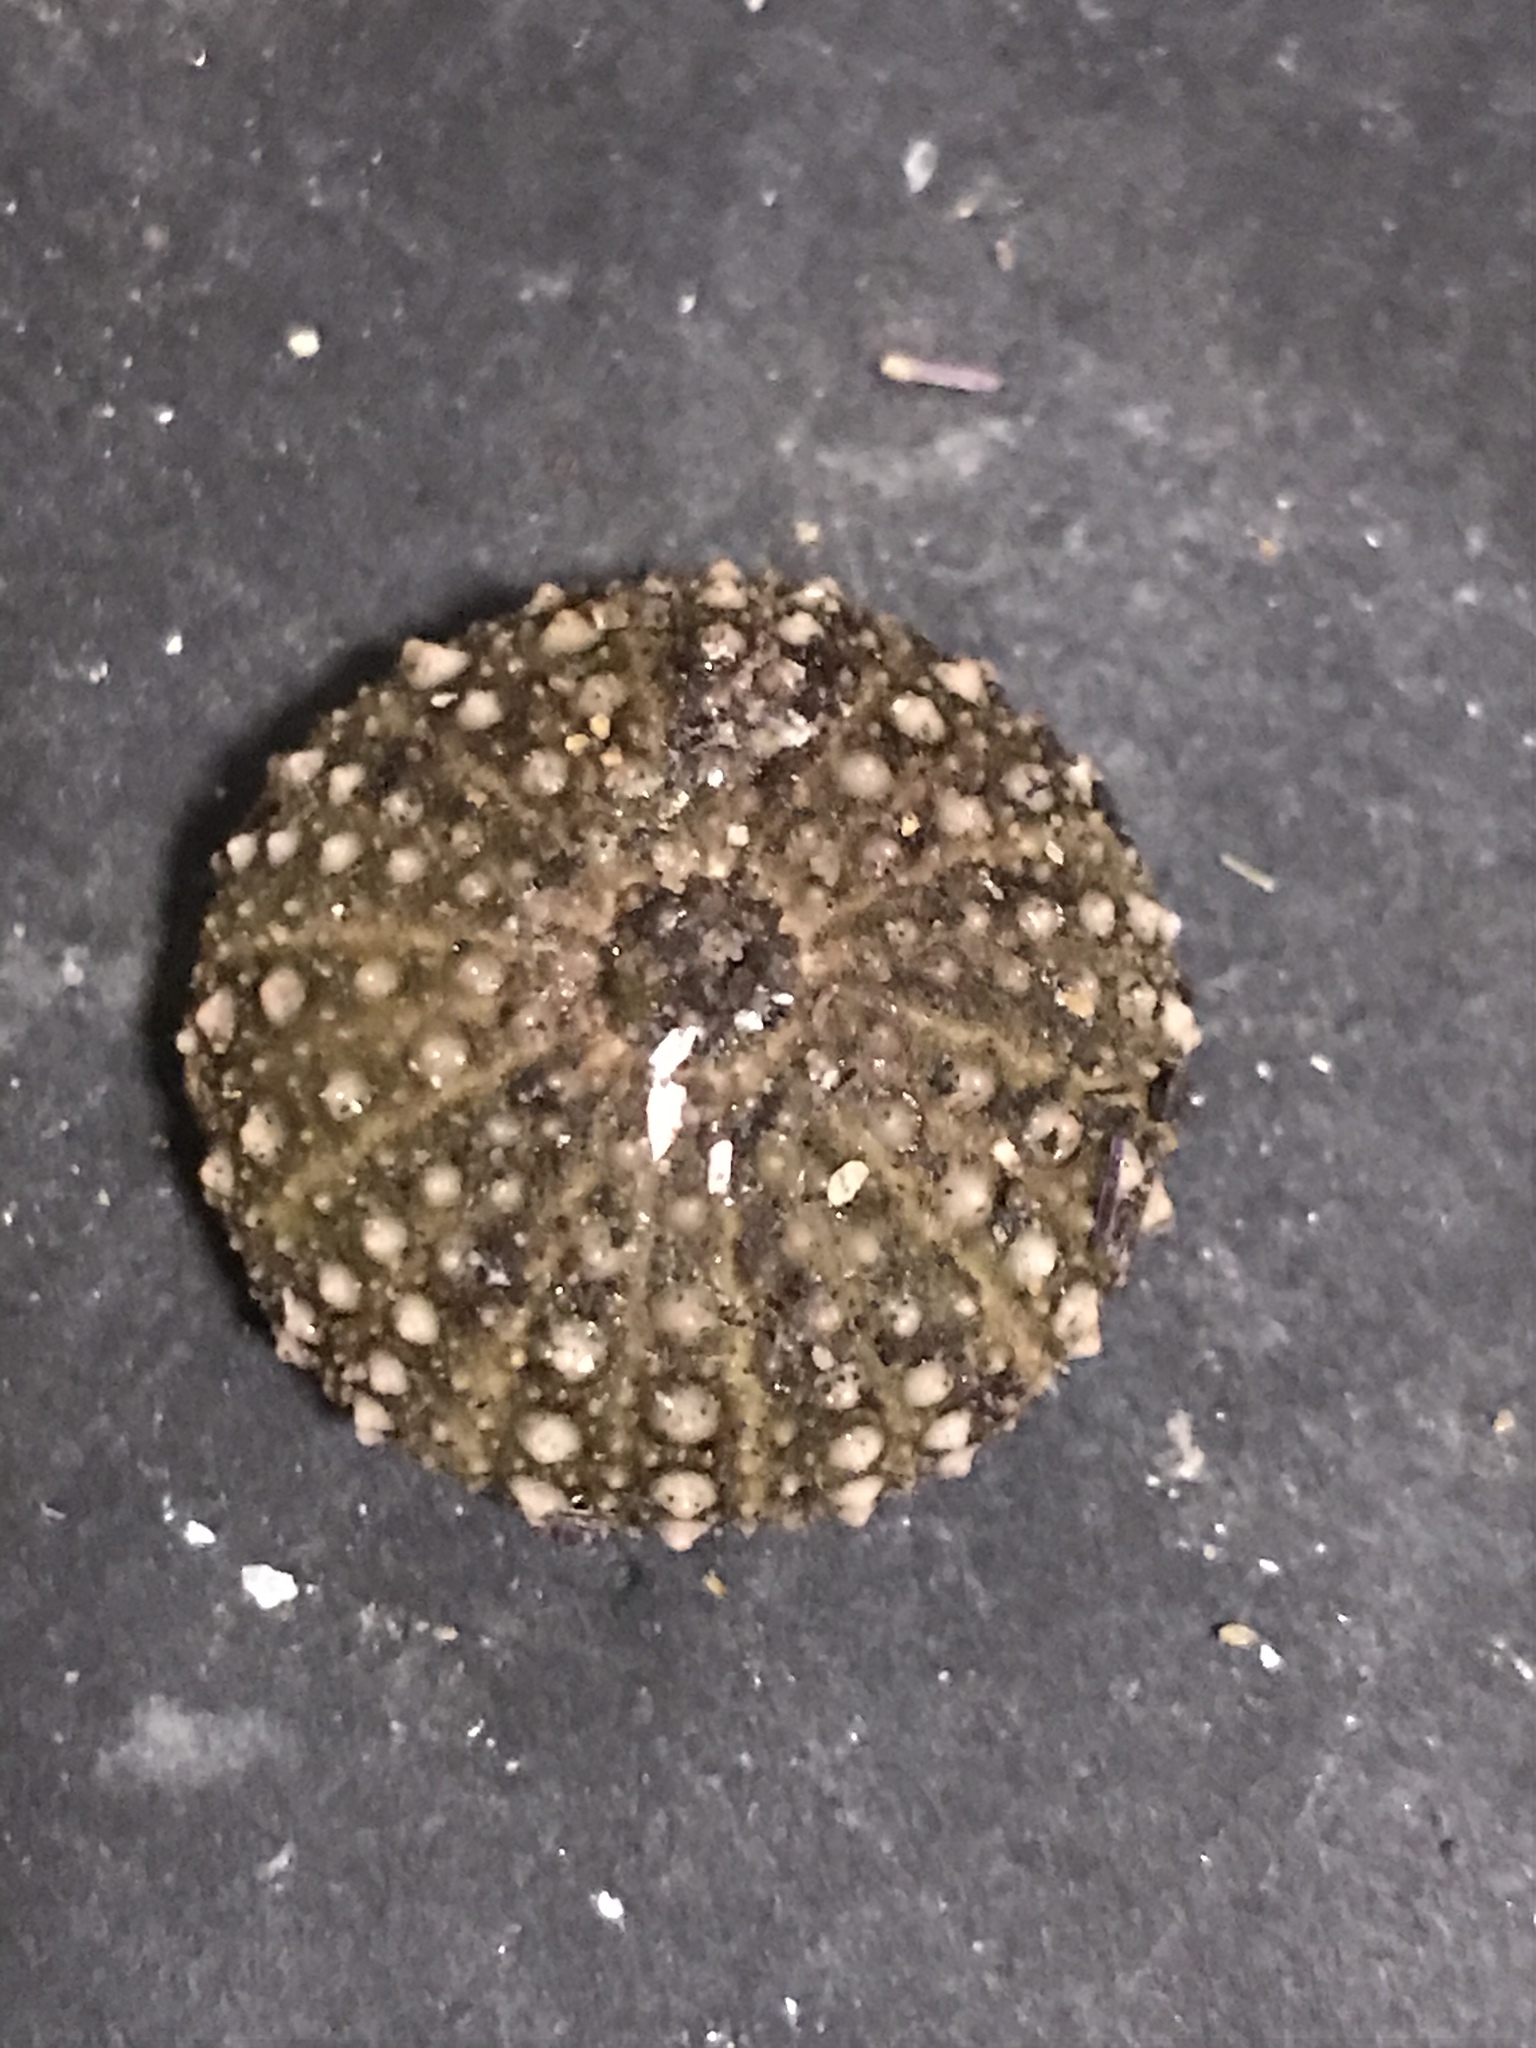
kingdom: Animalia
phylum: Echinodermata
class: Echinoidea
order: Camarodonta
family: Strongylocentrotidae
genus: Strongylocentrotus
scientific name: Strongylocentrotus purpuratus
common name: Purple sea urchin
